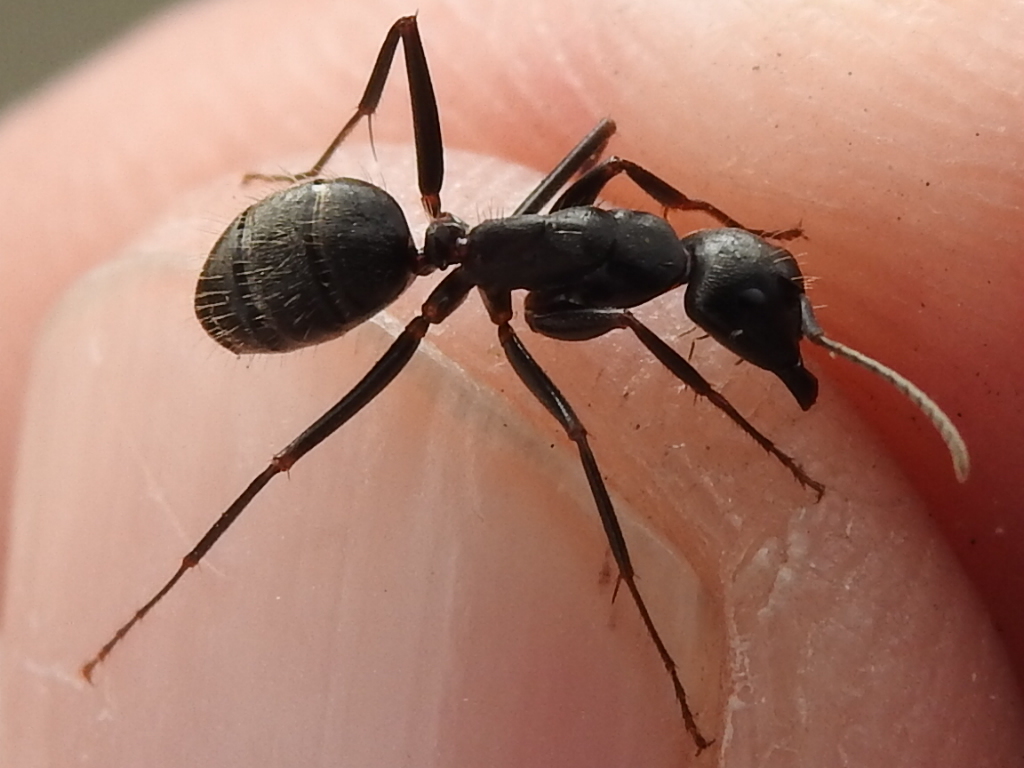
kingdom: Animalia
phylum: Arthropoda
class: Insecta
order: Hymenoptera
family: Formicidae
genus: Camponotus
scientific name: Camponotus pennsylvanicus
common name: Black carpenter ant
